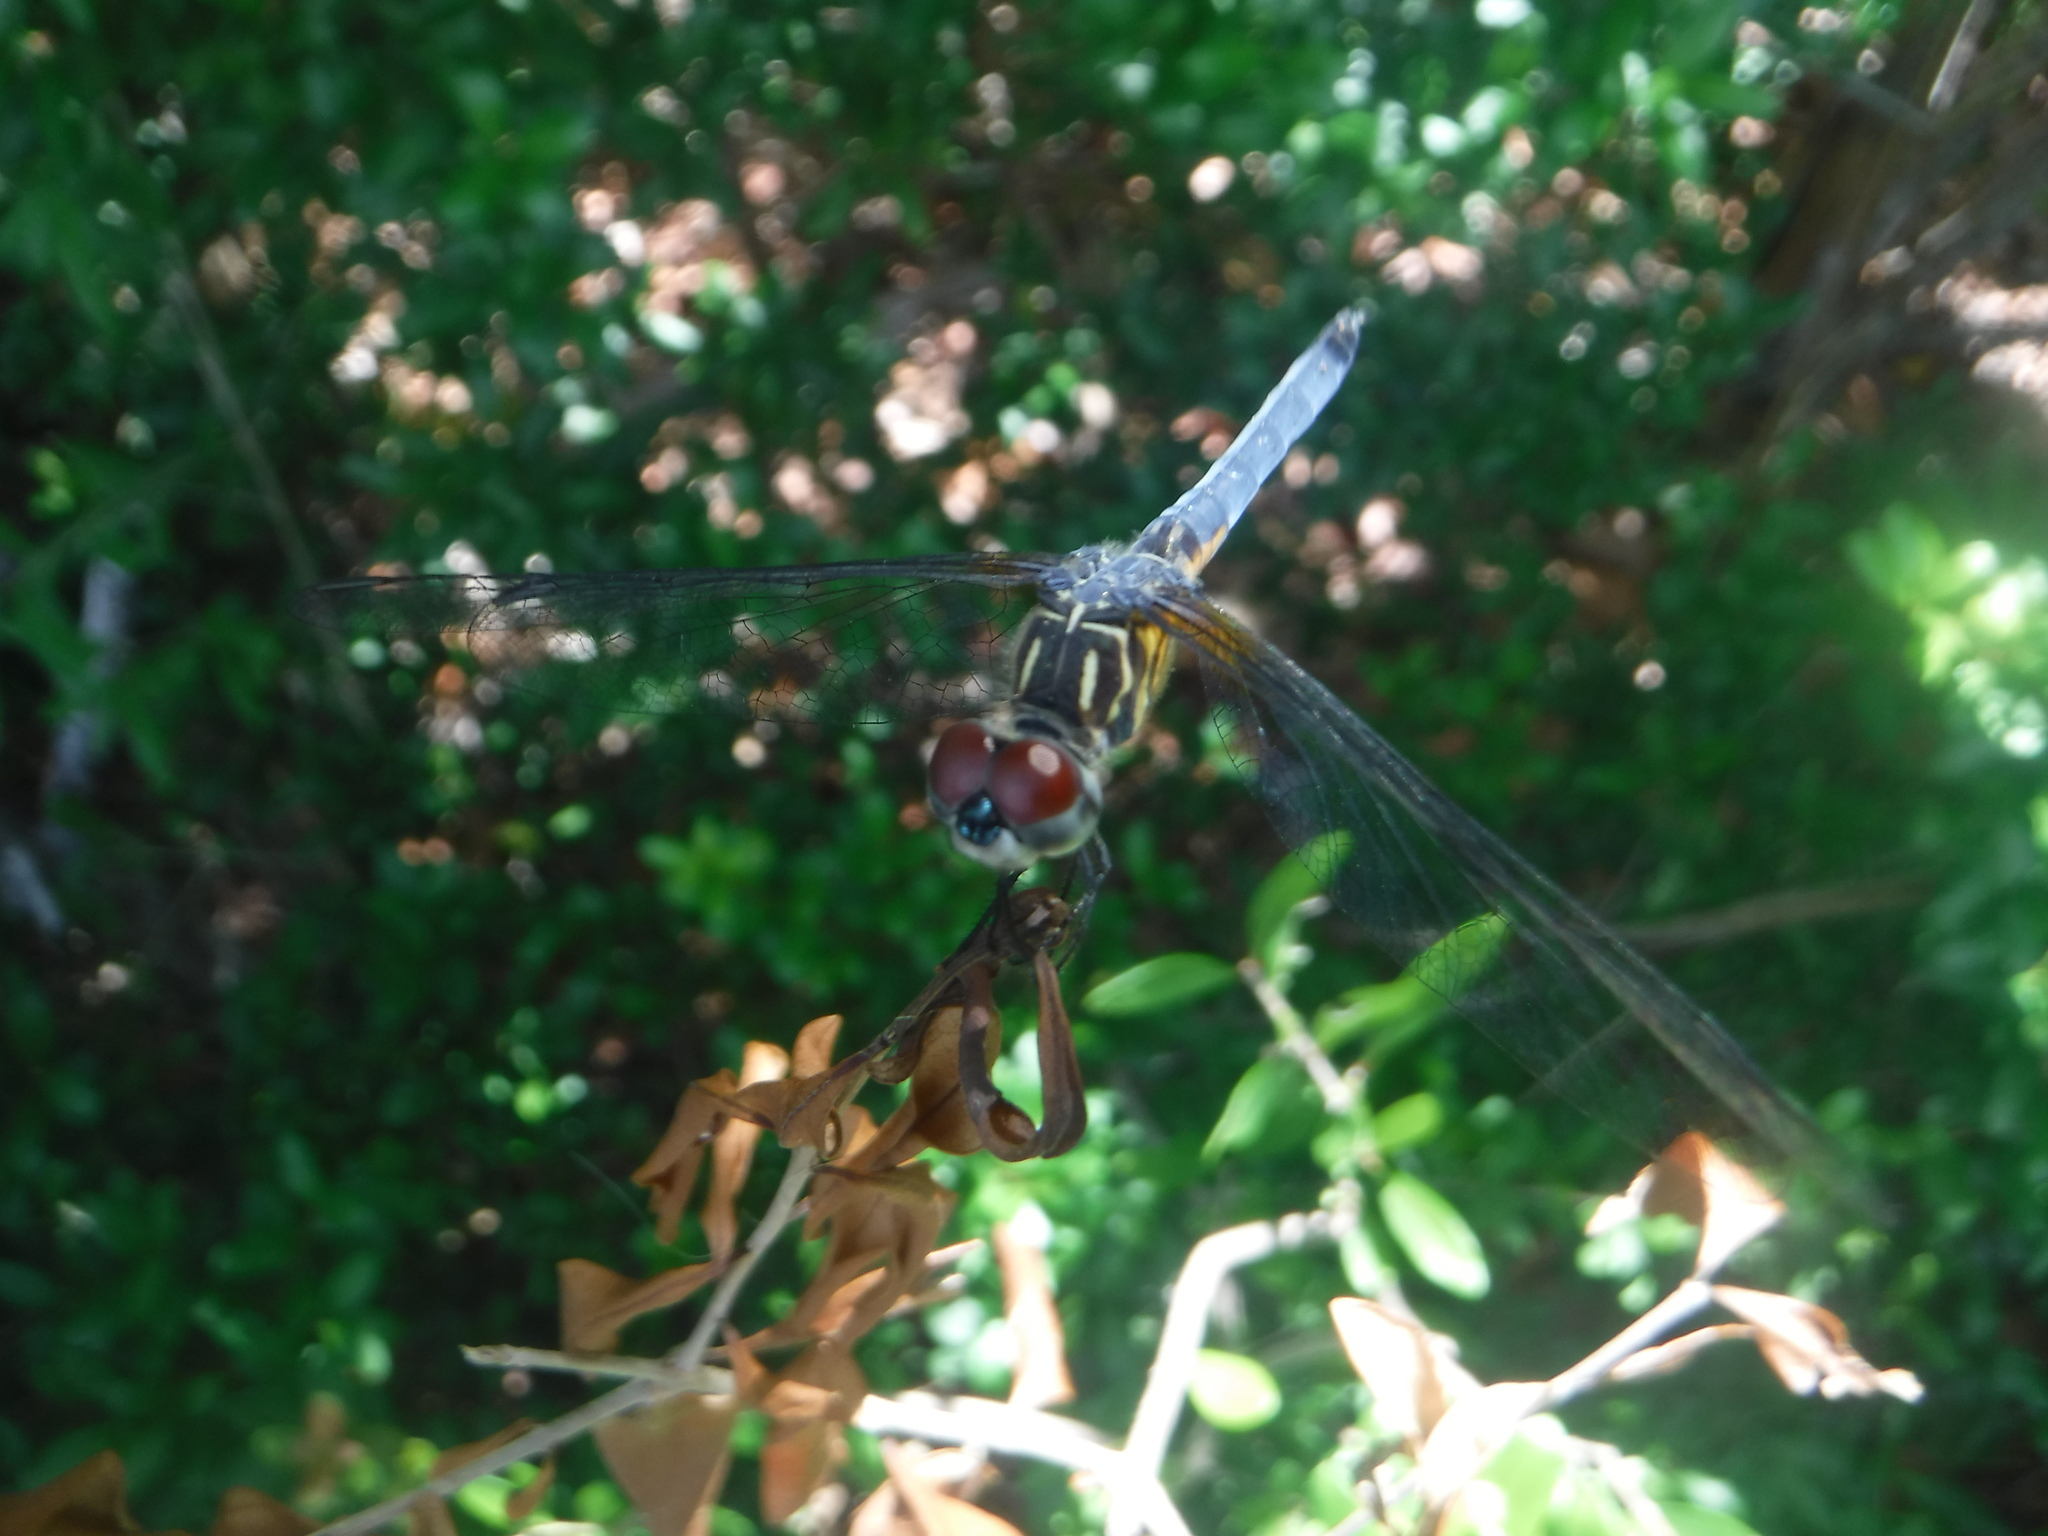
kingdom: Animalia
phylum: Arthropoda
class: Insecta
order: Odonata
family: Libellulidae
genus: Pachydiplax
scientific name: Pachydiplax longipennis
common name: Blue dasher
